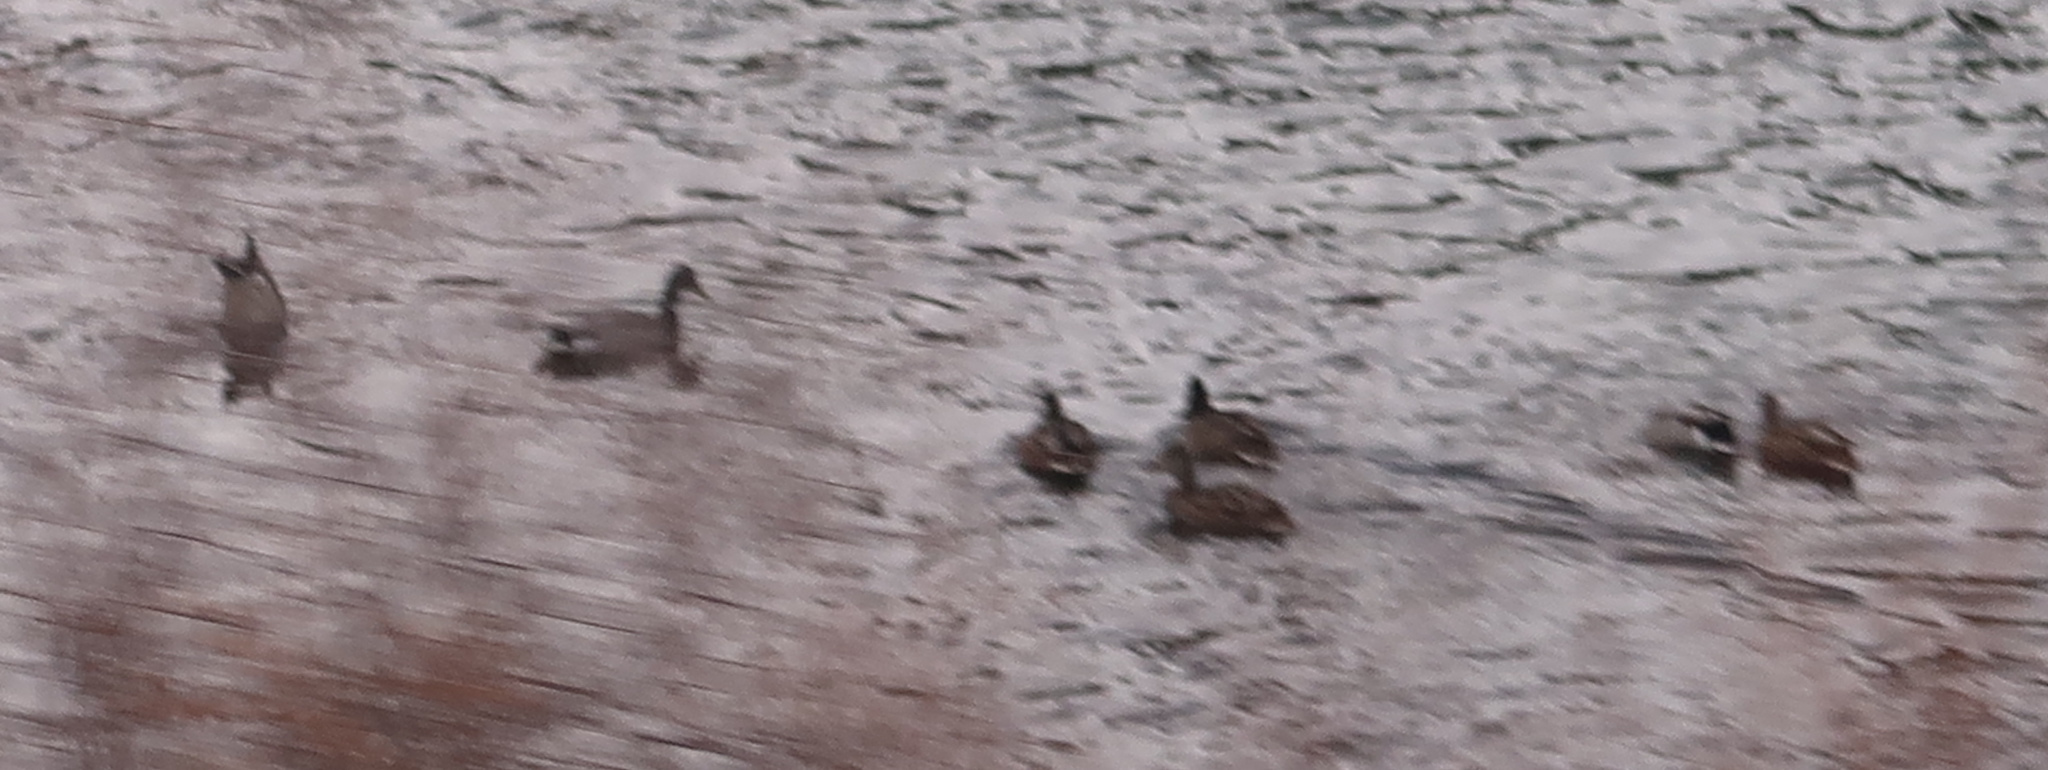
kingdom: Animalia
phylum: Chordata
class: Aves
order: Anseriformes
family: Anatidae
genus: Anas
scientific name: Anas platyrhynchos
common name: Mallard
